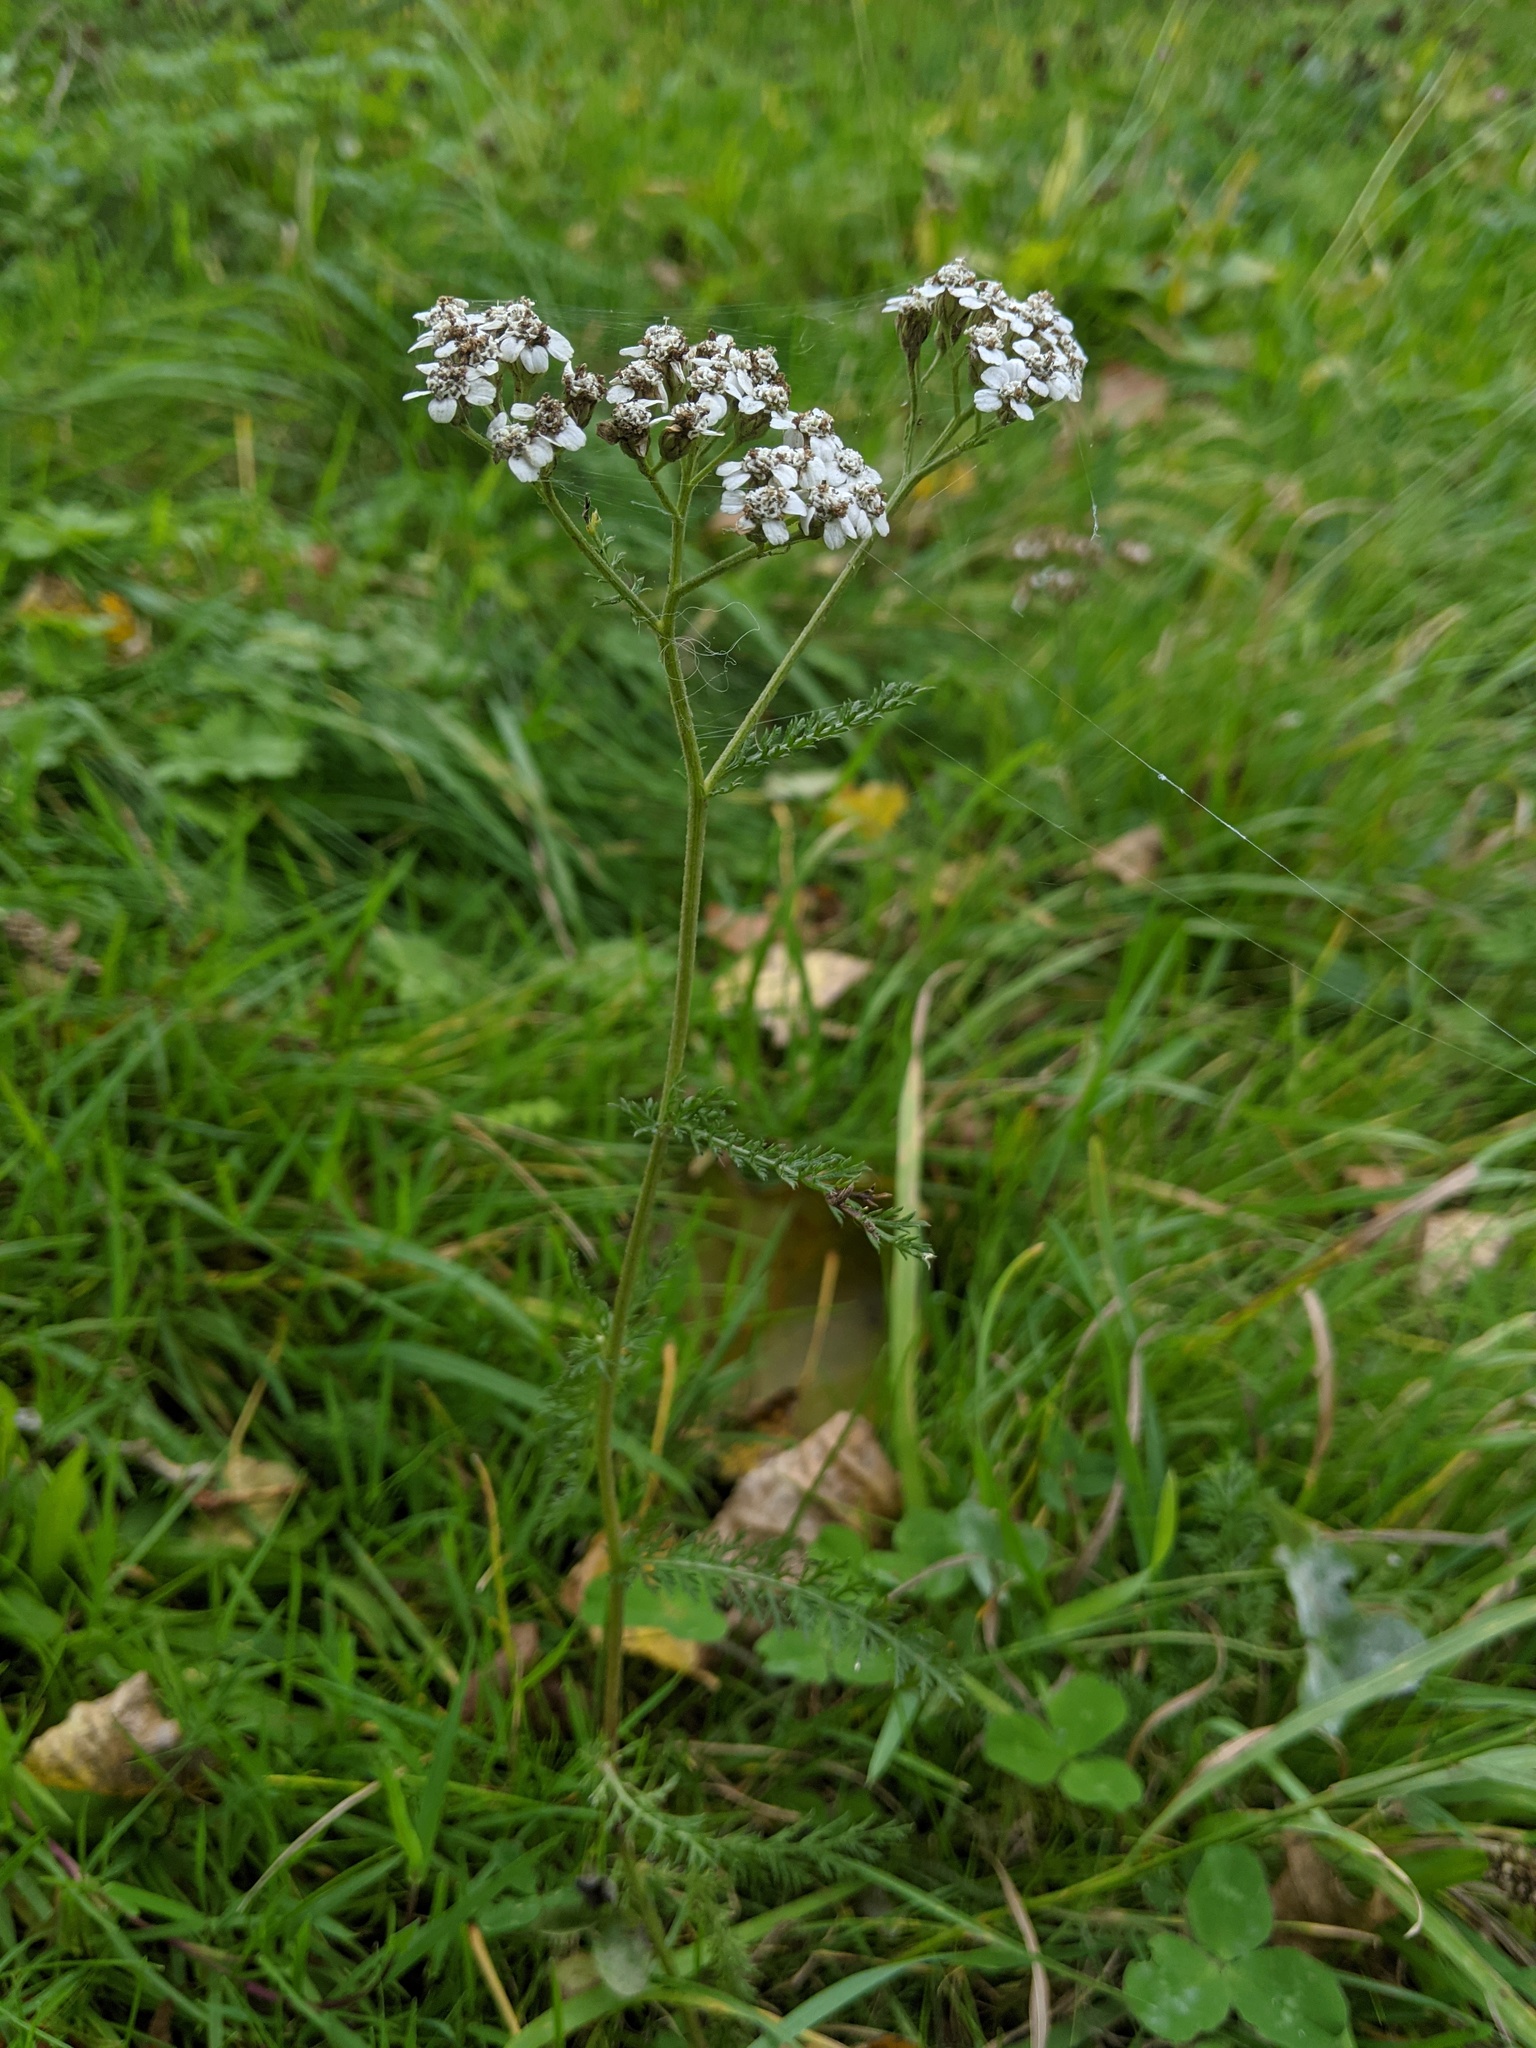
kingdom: Plantae
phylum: Tracheophyta
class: Magnoliopsida
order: Asterales
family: Asteraceae
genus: Achillea
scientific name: Achillea millefolium
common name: Yarrow
